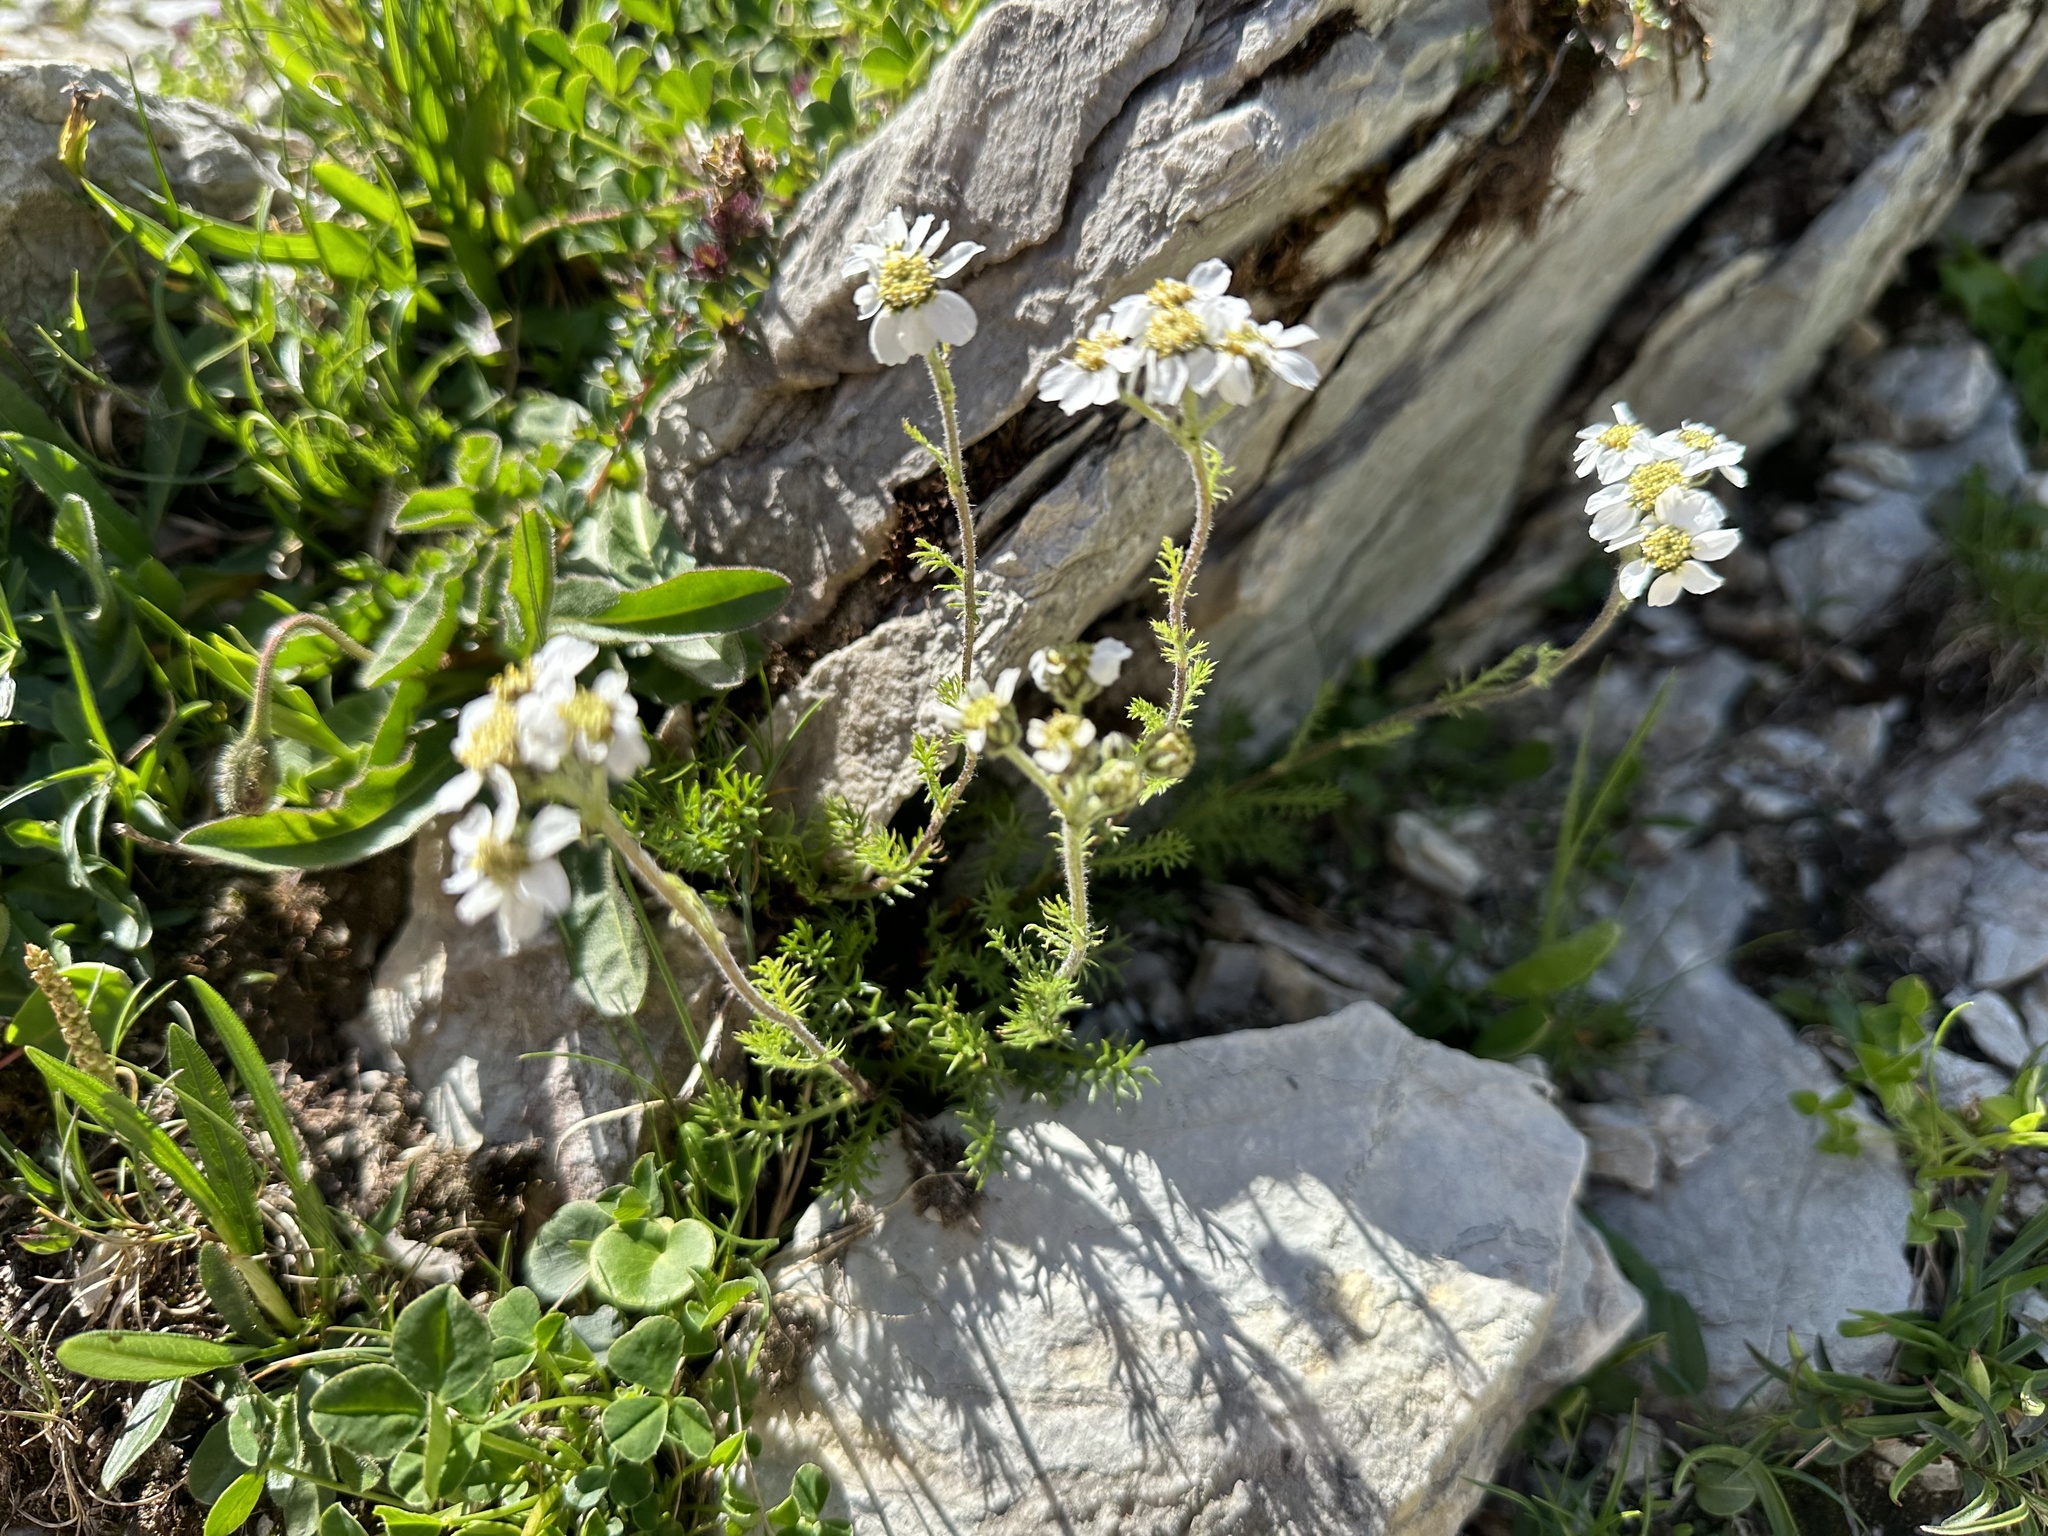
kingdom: Plantae
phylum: Tracheophyta
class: Magnoliopsida
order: Asterales
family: Asteraceae
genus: Achillea
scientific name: Achillea atrata
